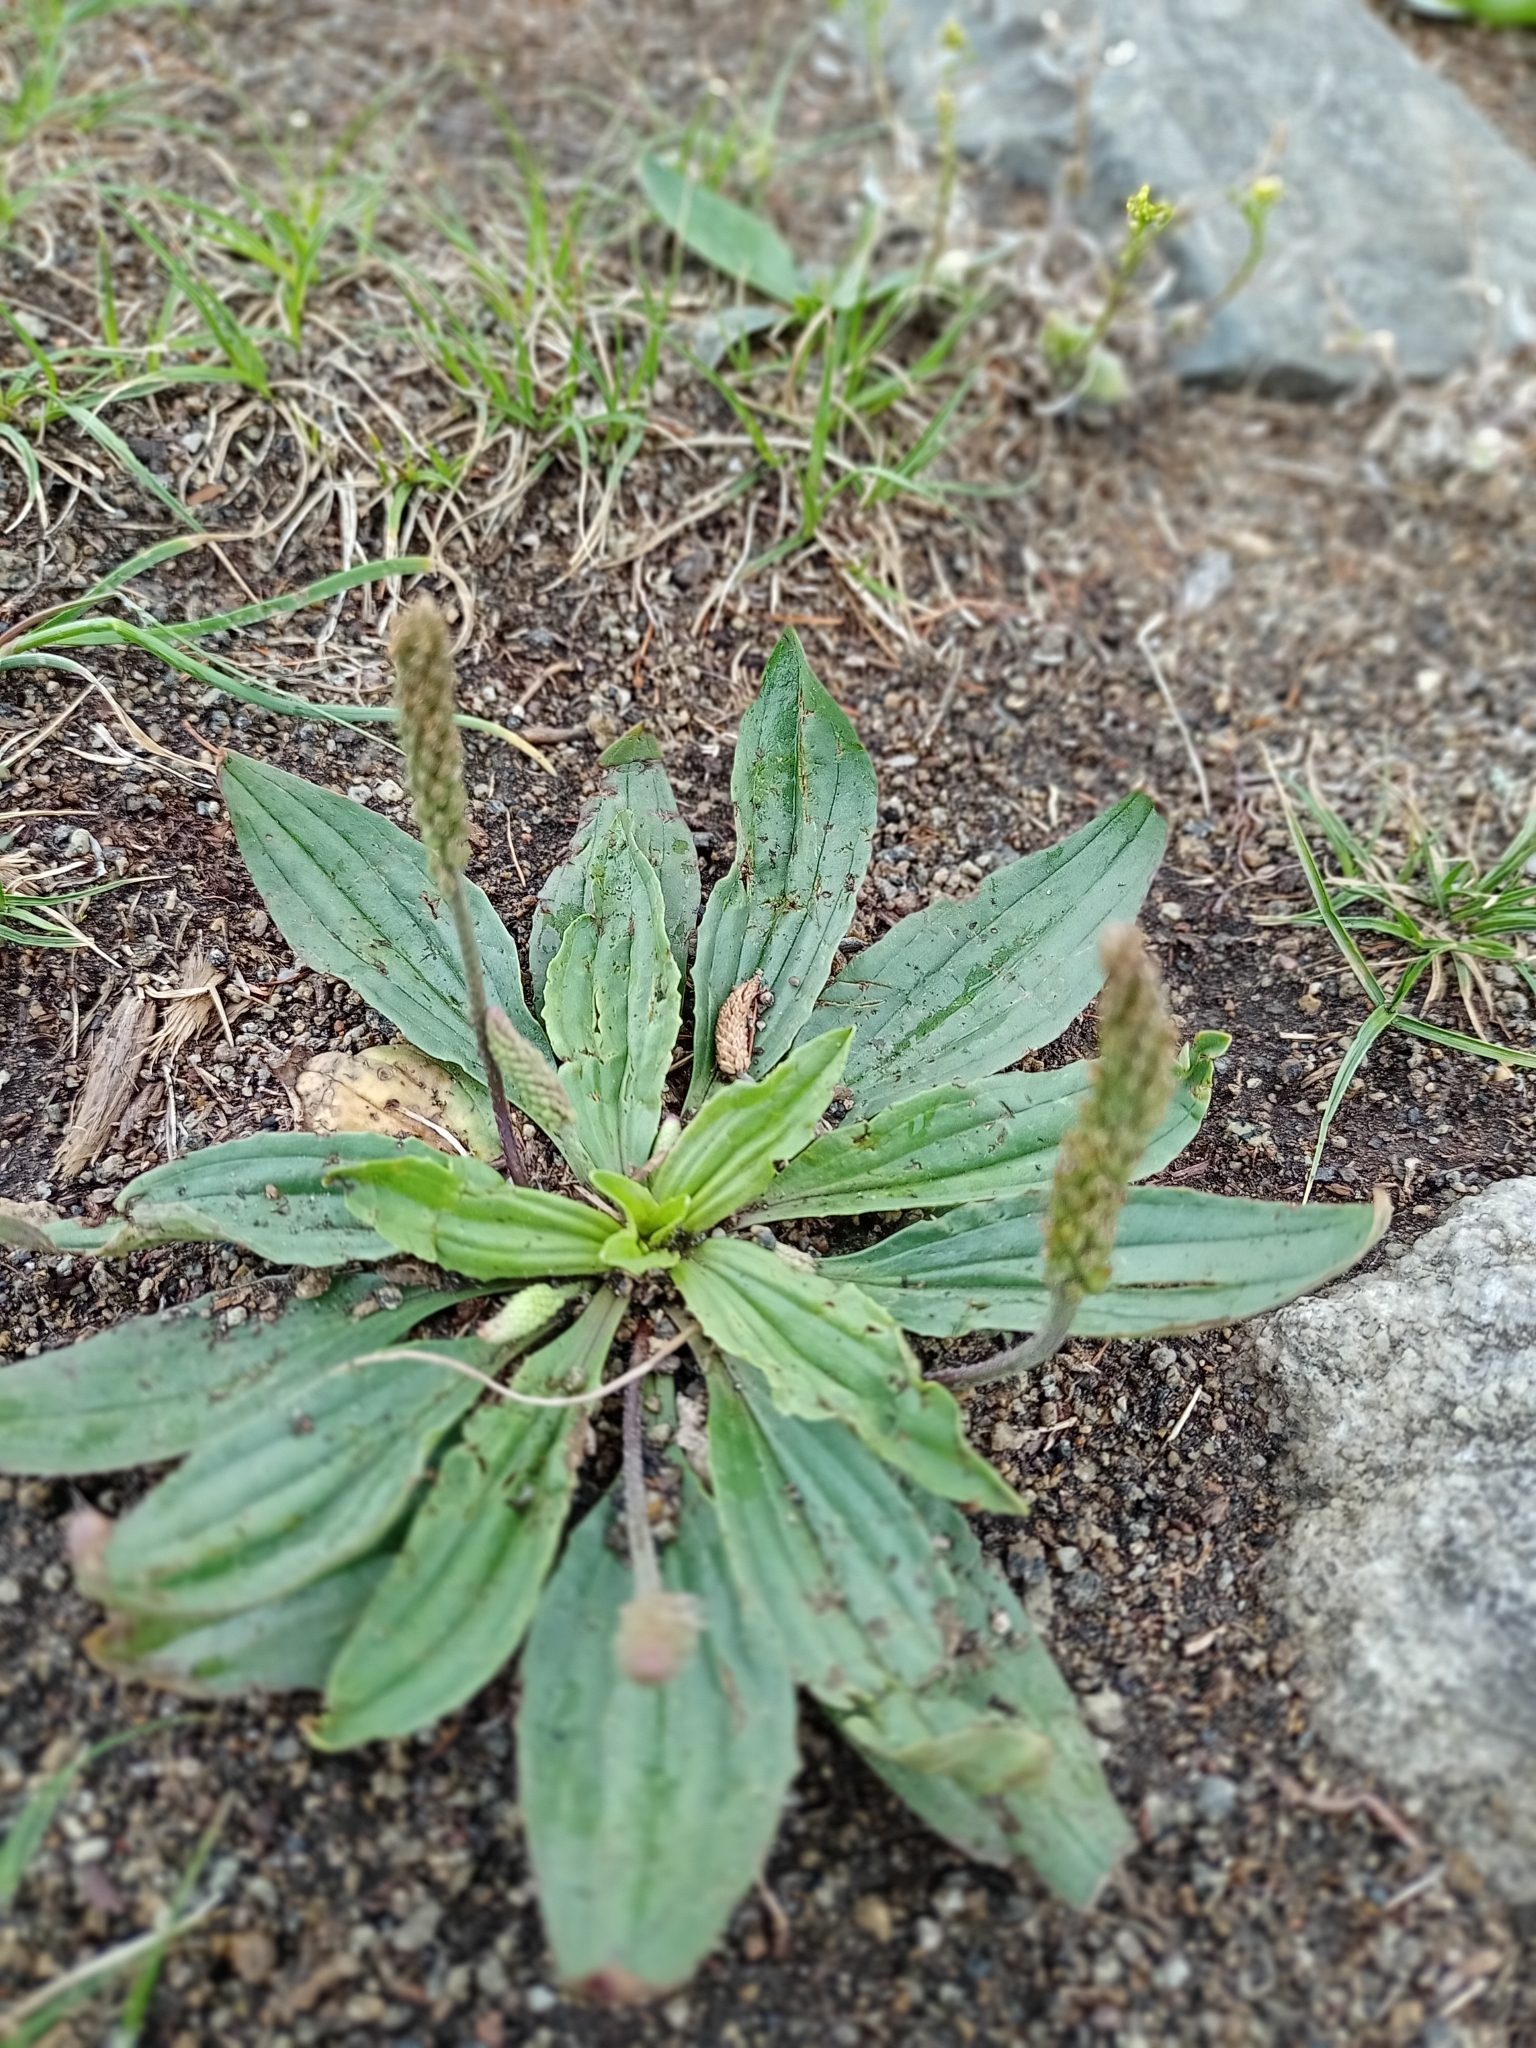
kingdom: Plantae
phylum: Tracheophyta
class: Magnoliopsida
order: Lamiales
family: Plantaginaceae
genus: Plantago
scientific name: Plantago depressa
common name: Depressed plantain
